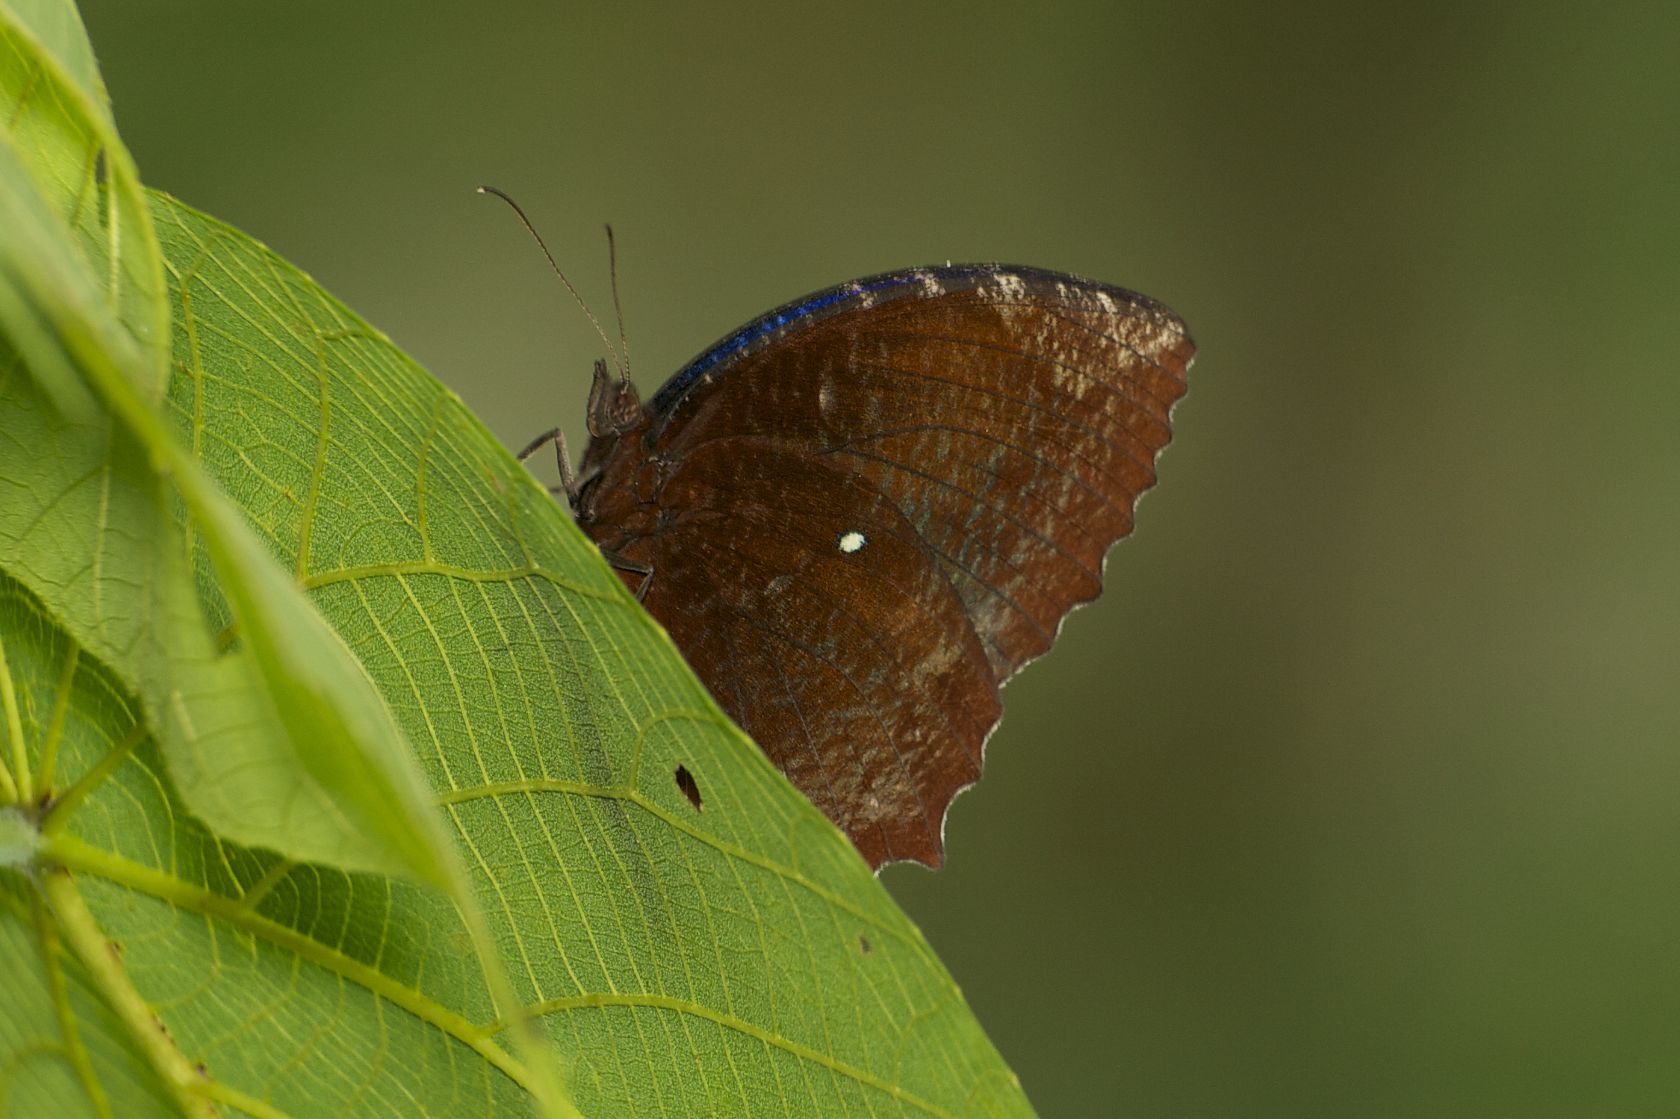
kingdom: Animalia
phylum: Arthropoda
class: Insecta
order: Lepidoptera
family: Nymphalidae
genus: Elymnias
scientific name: Elymnias hypermnestra
